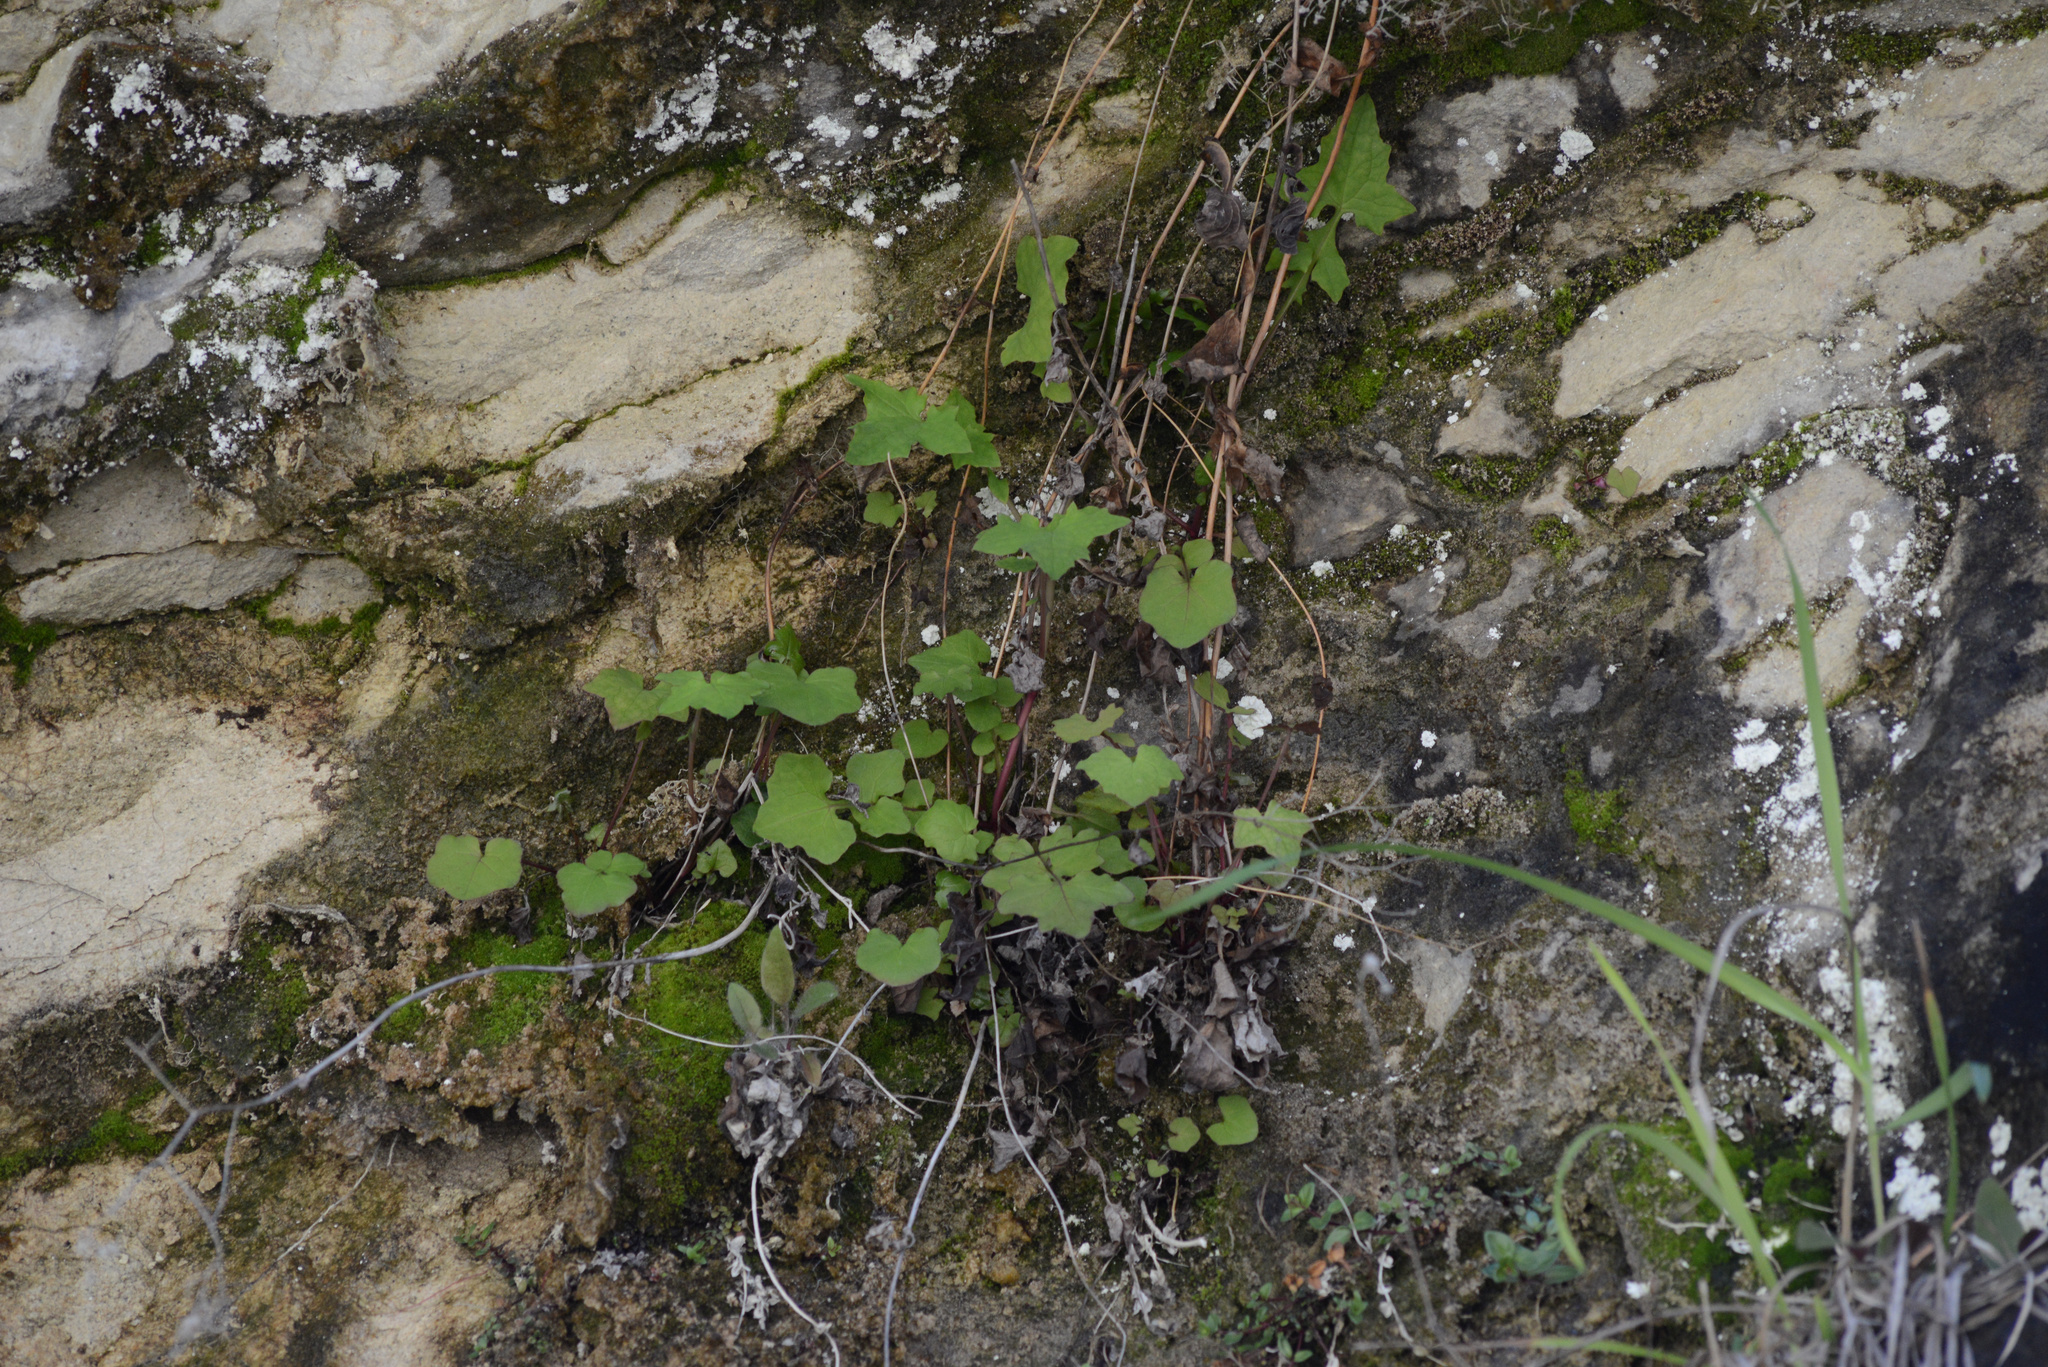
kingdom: Plantae
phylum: Tracheophyta
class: Magnoliopsida
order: Asterales
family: Asteraceae
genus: Mycelis
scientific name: Mycelis muralis
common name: Wall lettuce
